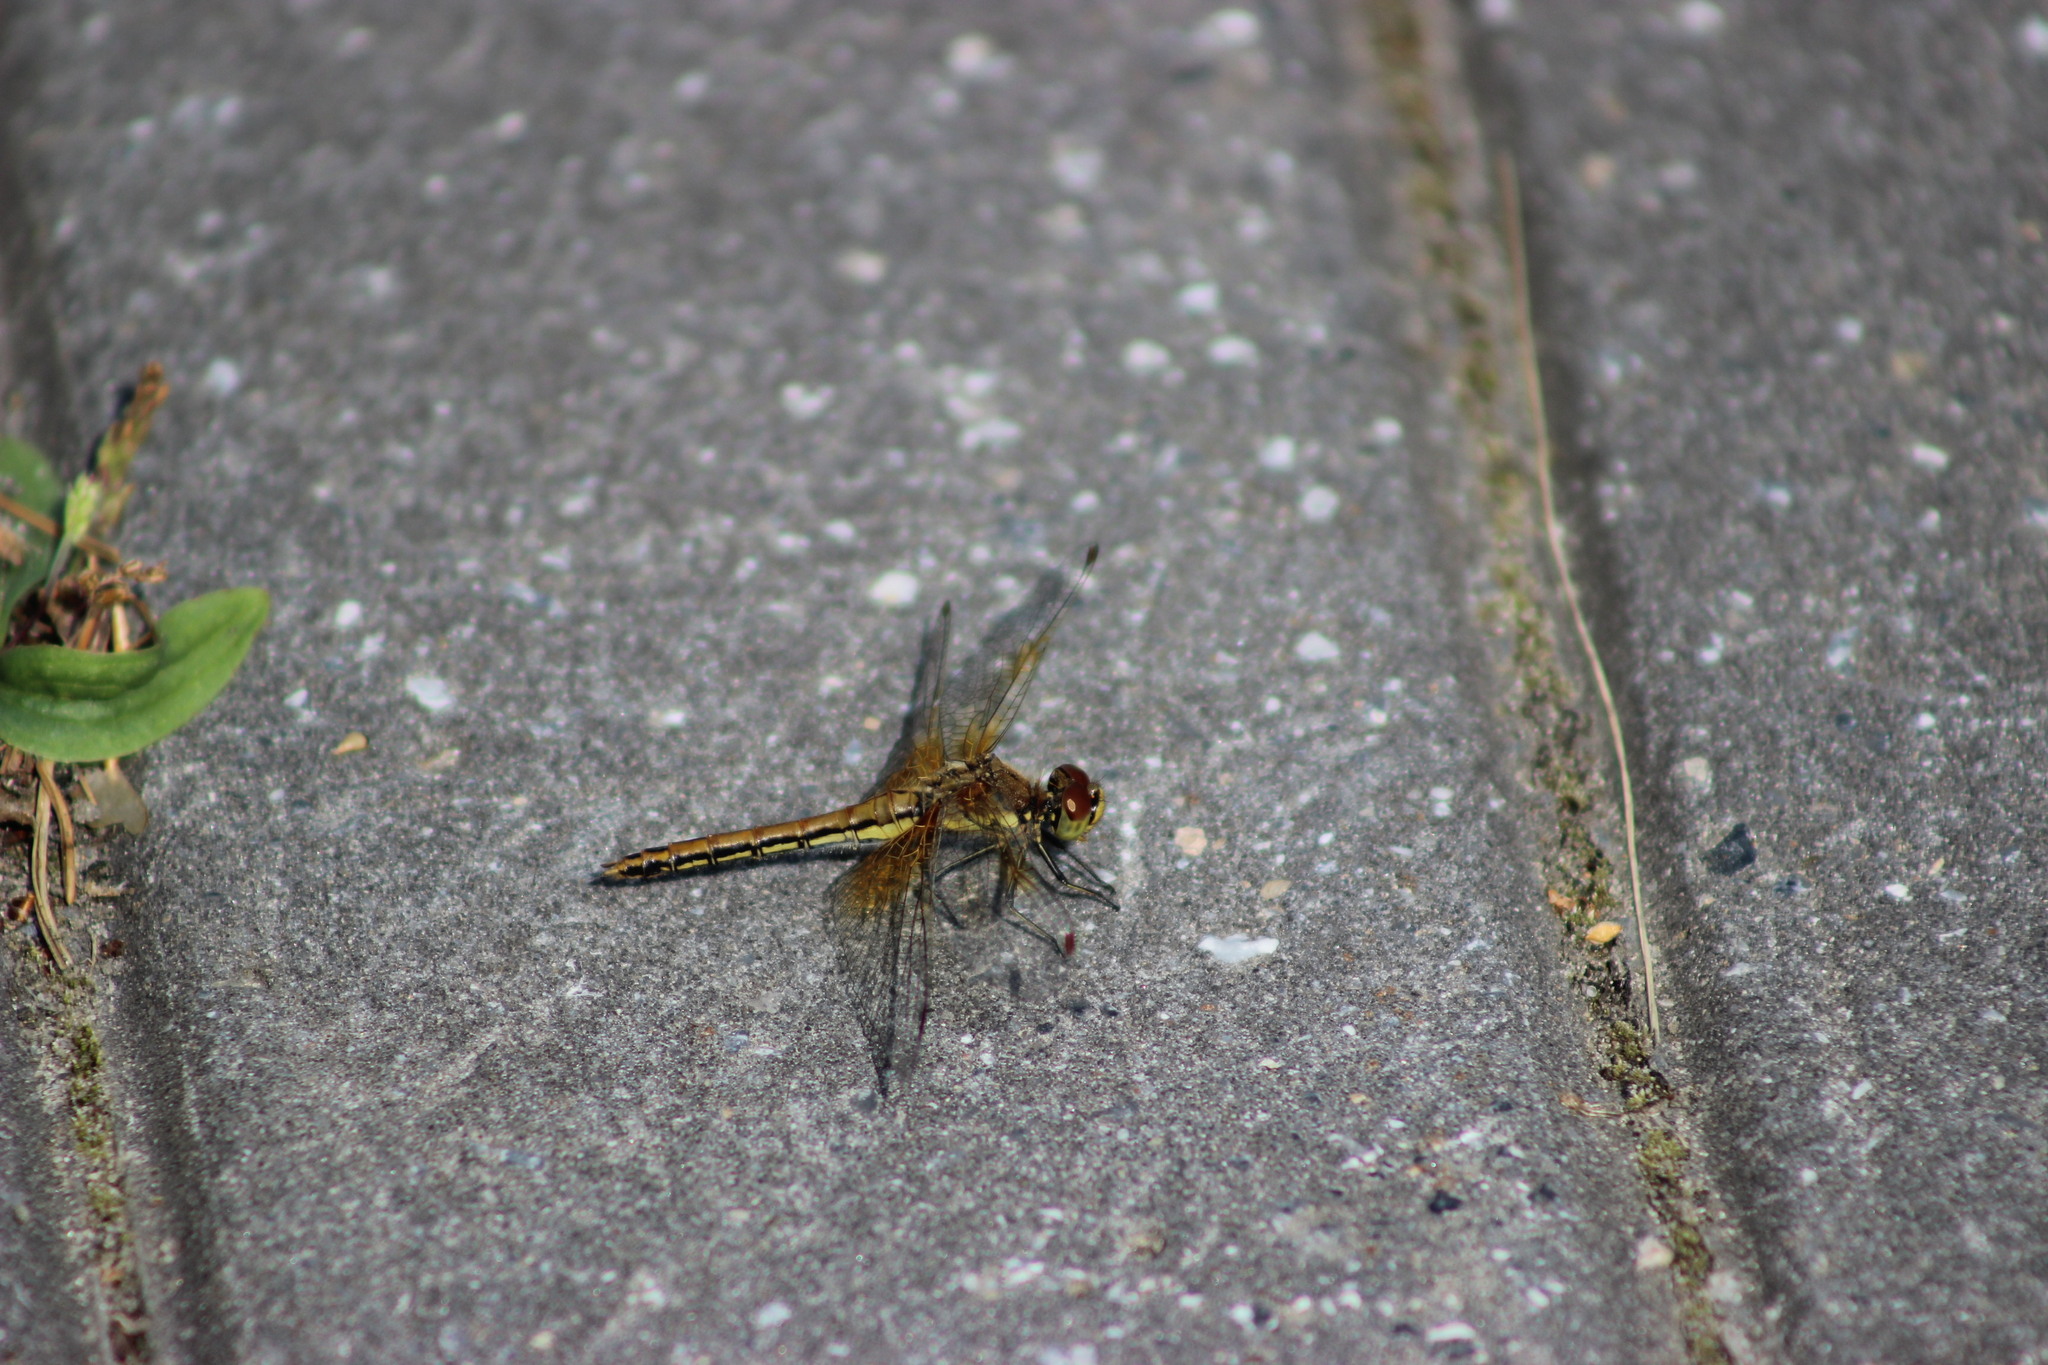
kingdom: Animalia
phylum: Arthropoda
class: Insecta
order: Odonata
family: Libellulidae
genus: Sympetrum
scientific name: Sympetrum flaveolum
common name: Yellow-winged darter
